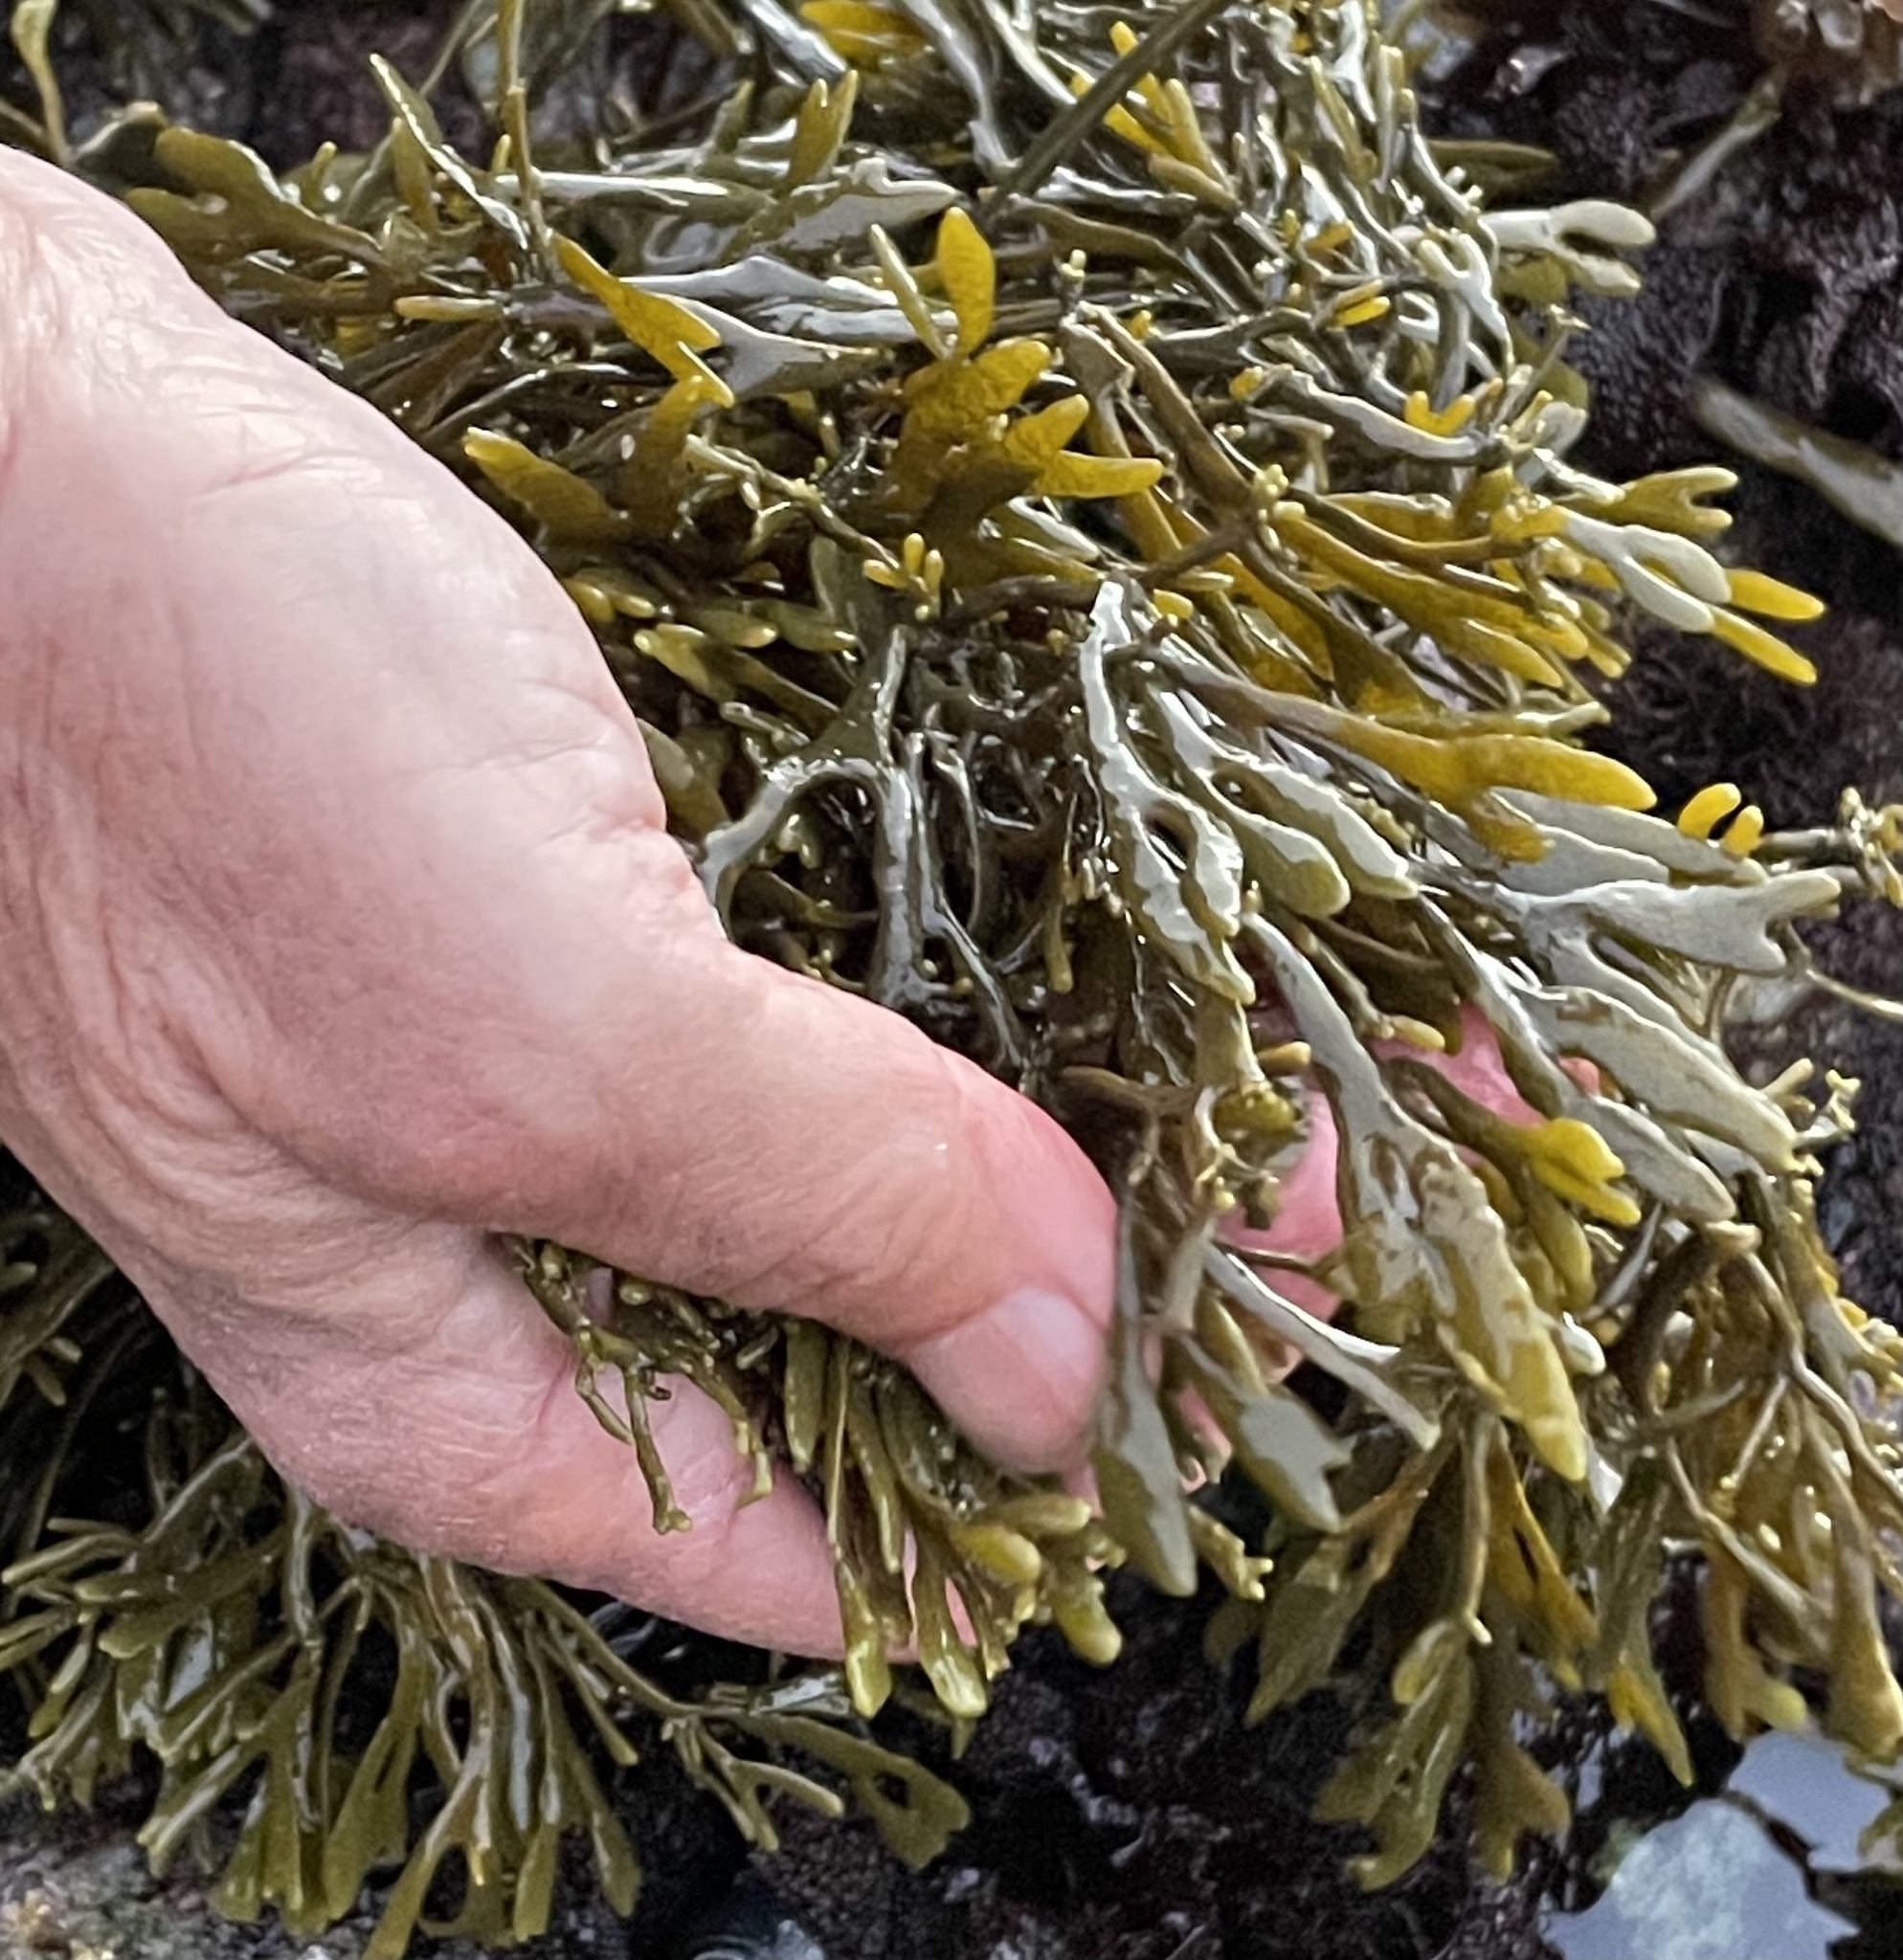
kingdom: Chromista
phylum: Ochrophyta
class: Phaeophyceae
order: Fucales
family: Fucaceae
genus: Fucus
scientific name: Fucus distichus
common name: Rockweed
